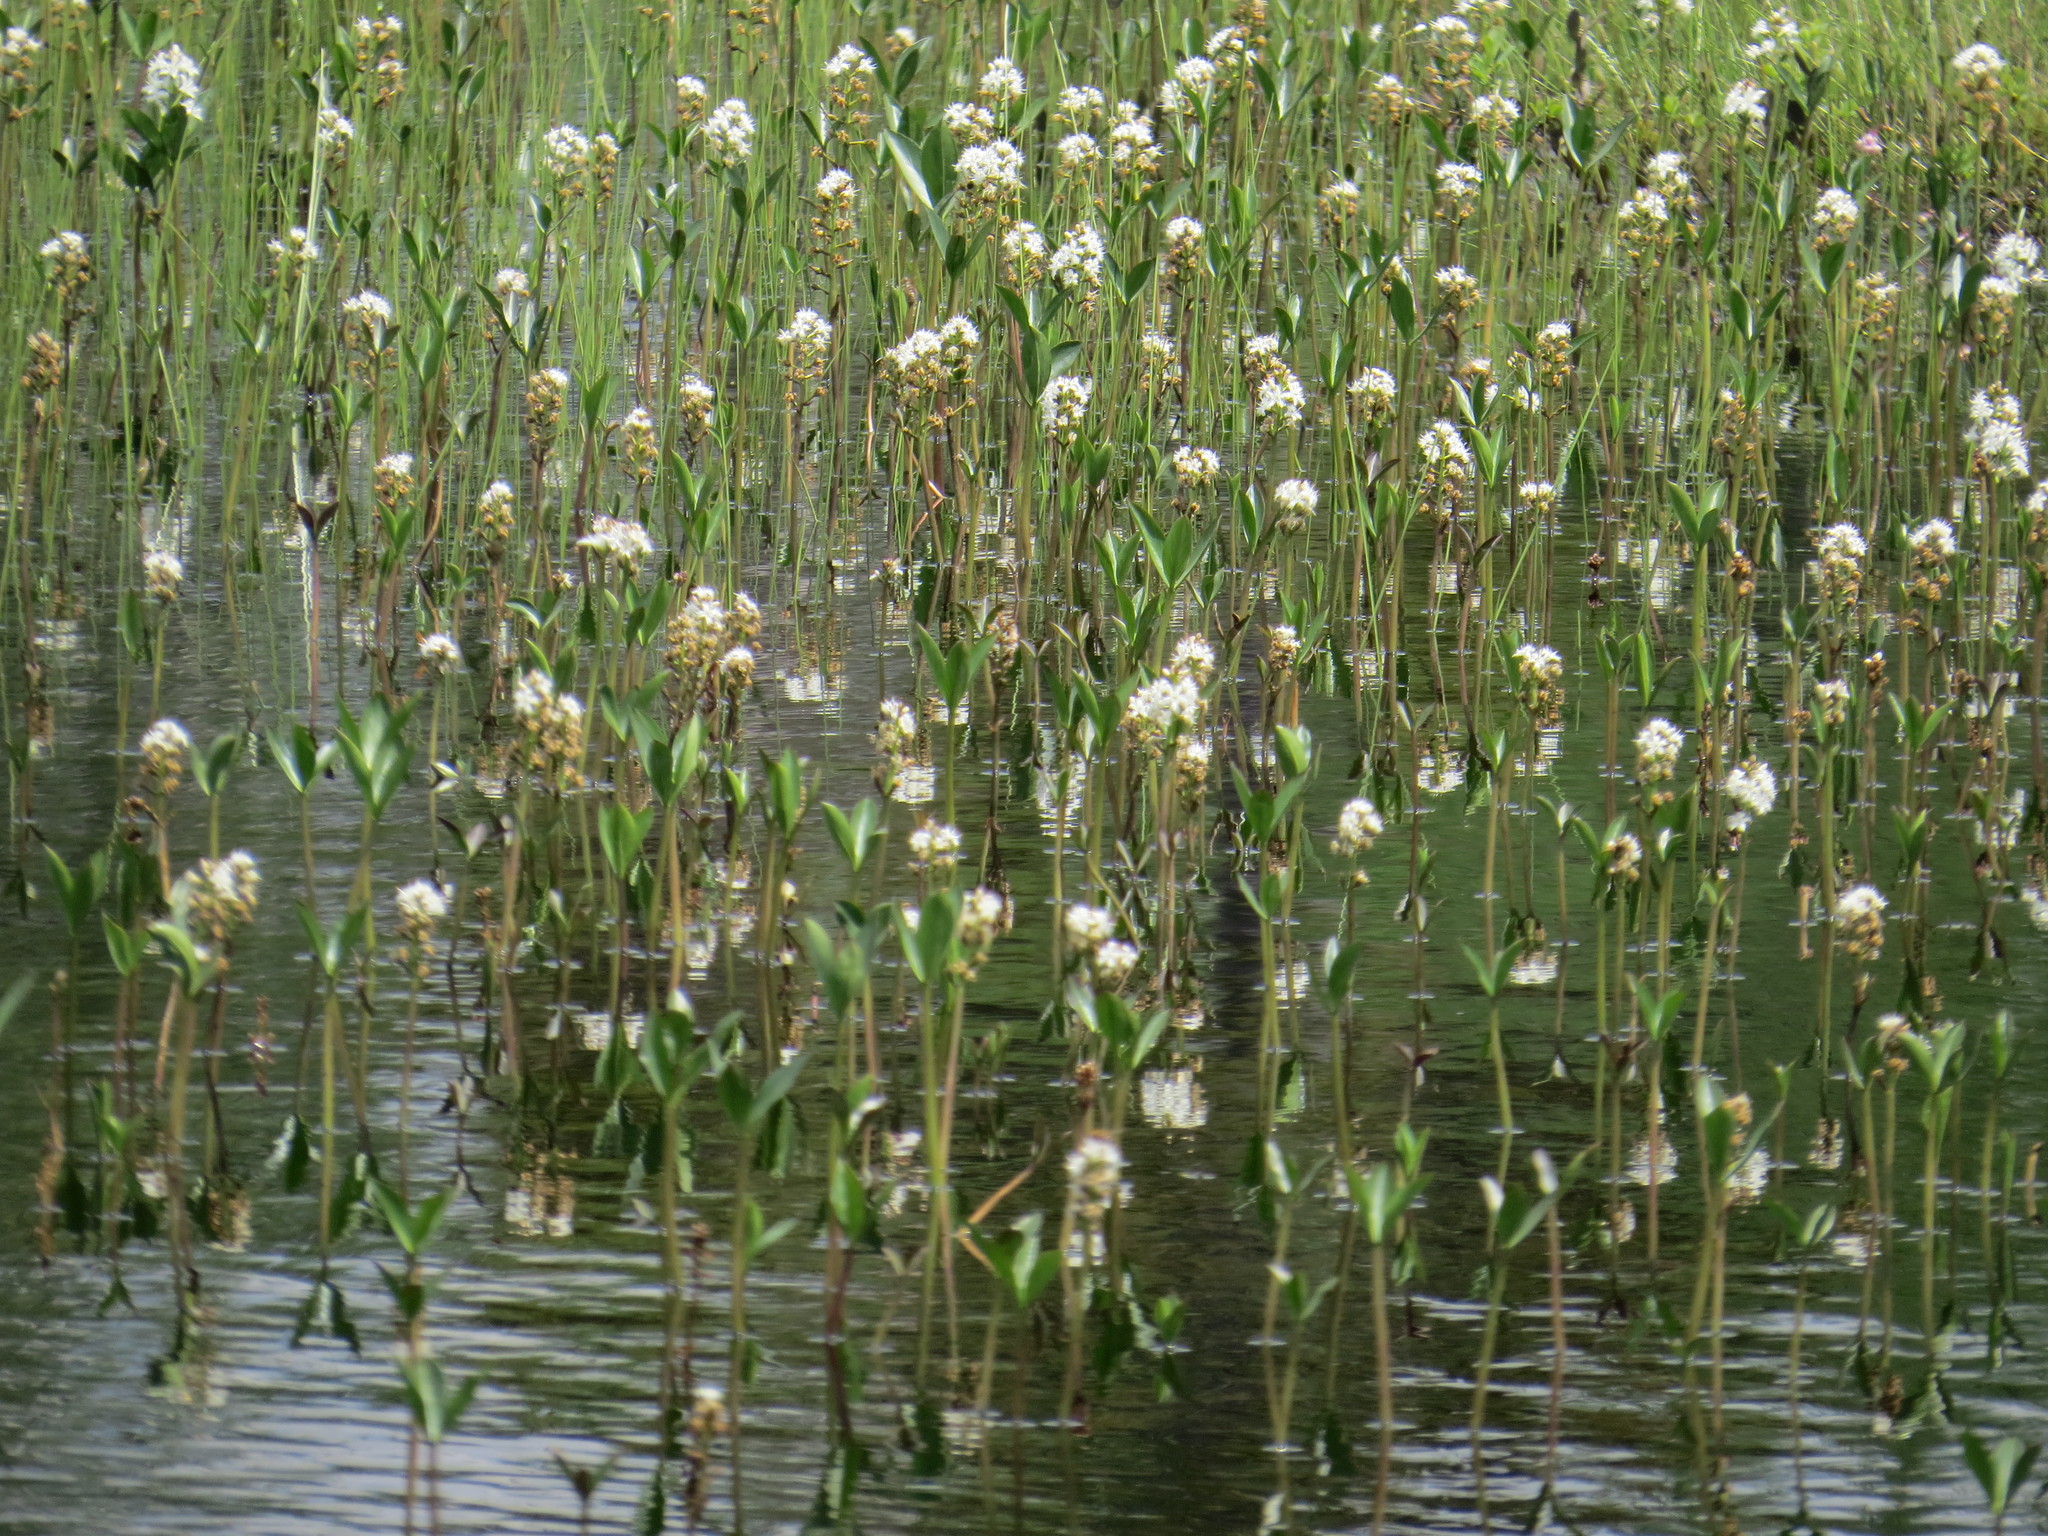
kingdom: Plantae
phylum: Tracheophyta
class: Magnoliopsida
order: Asterales
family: Menyanthaceae
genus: Menyanthes
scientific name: Menyanthes trifoliata
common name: Bogbean
